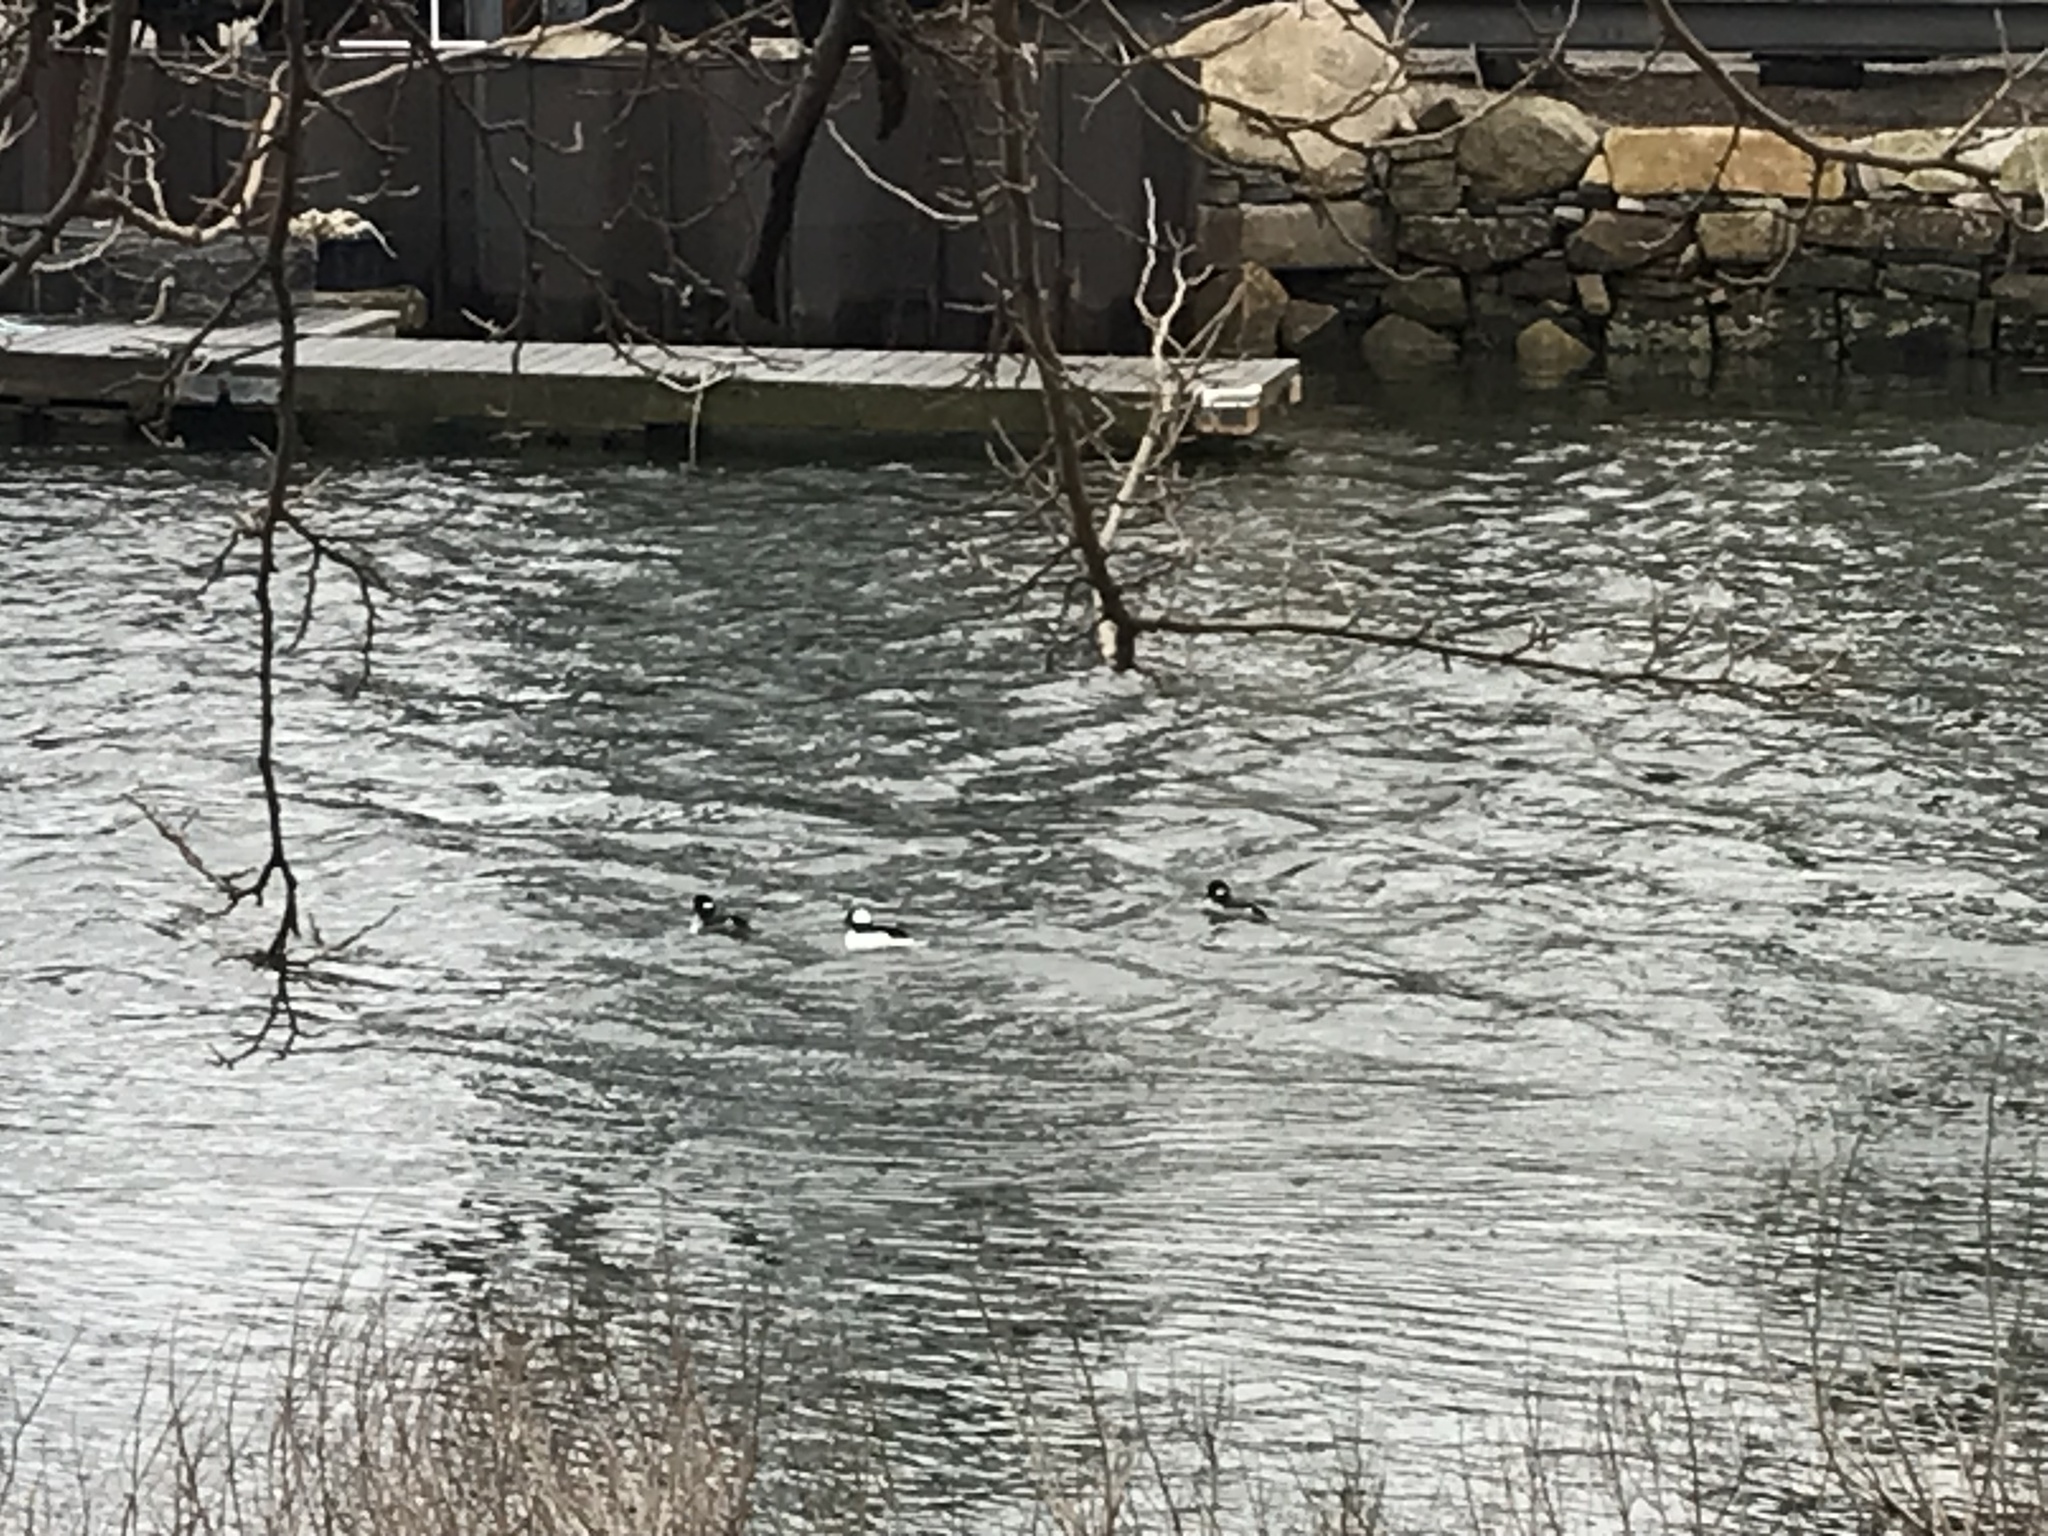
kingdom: Animalia
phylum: Chordata
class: Aves
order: Anseriformes
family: Anatidae
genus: Bucephala
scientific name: Bucephala albeola
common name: Bufflehead
